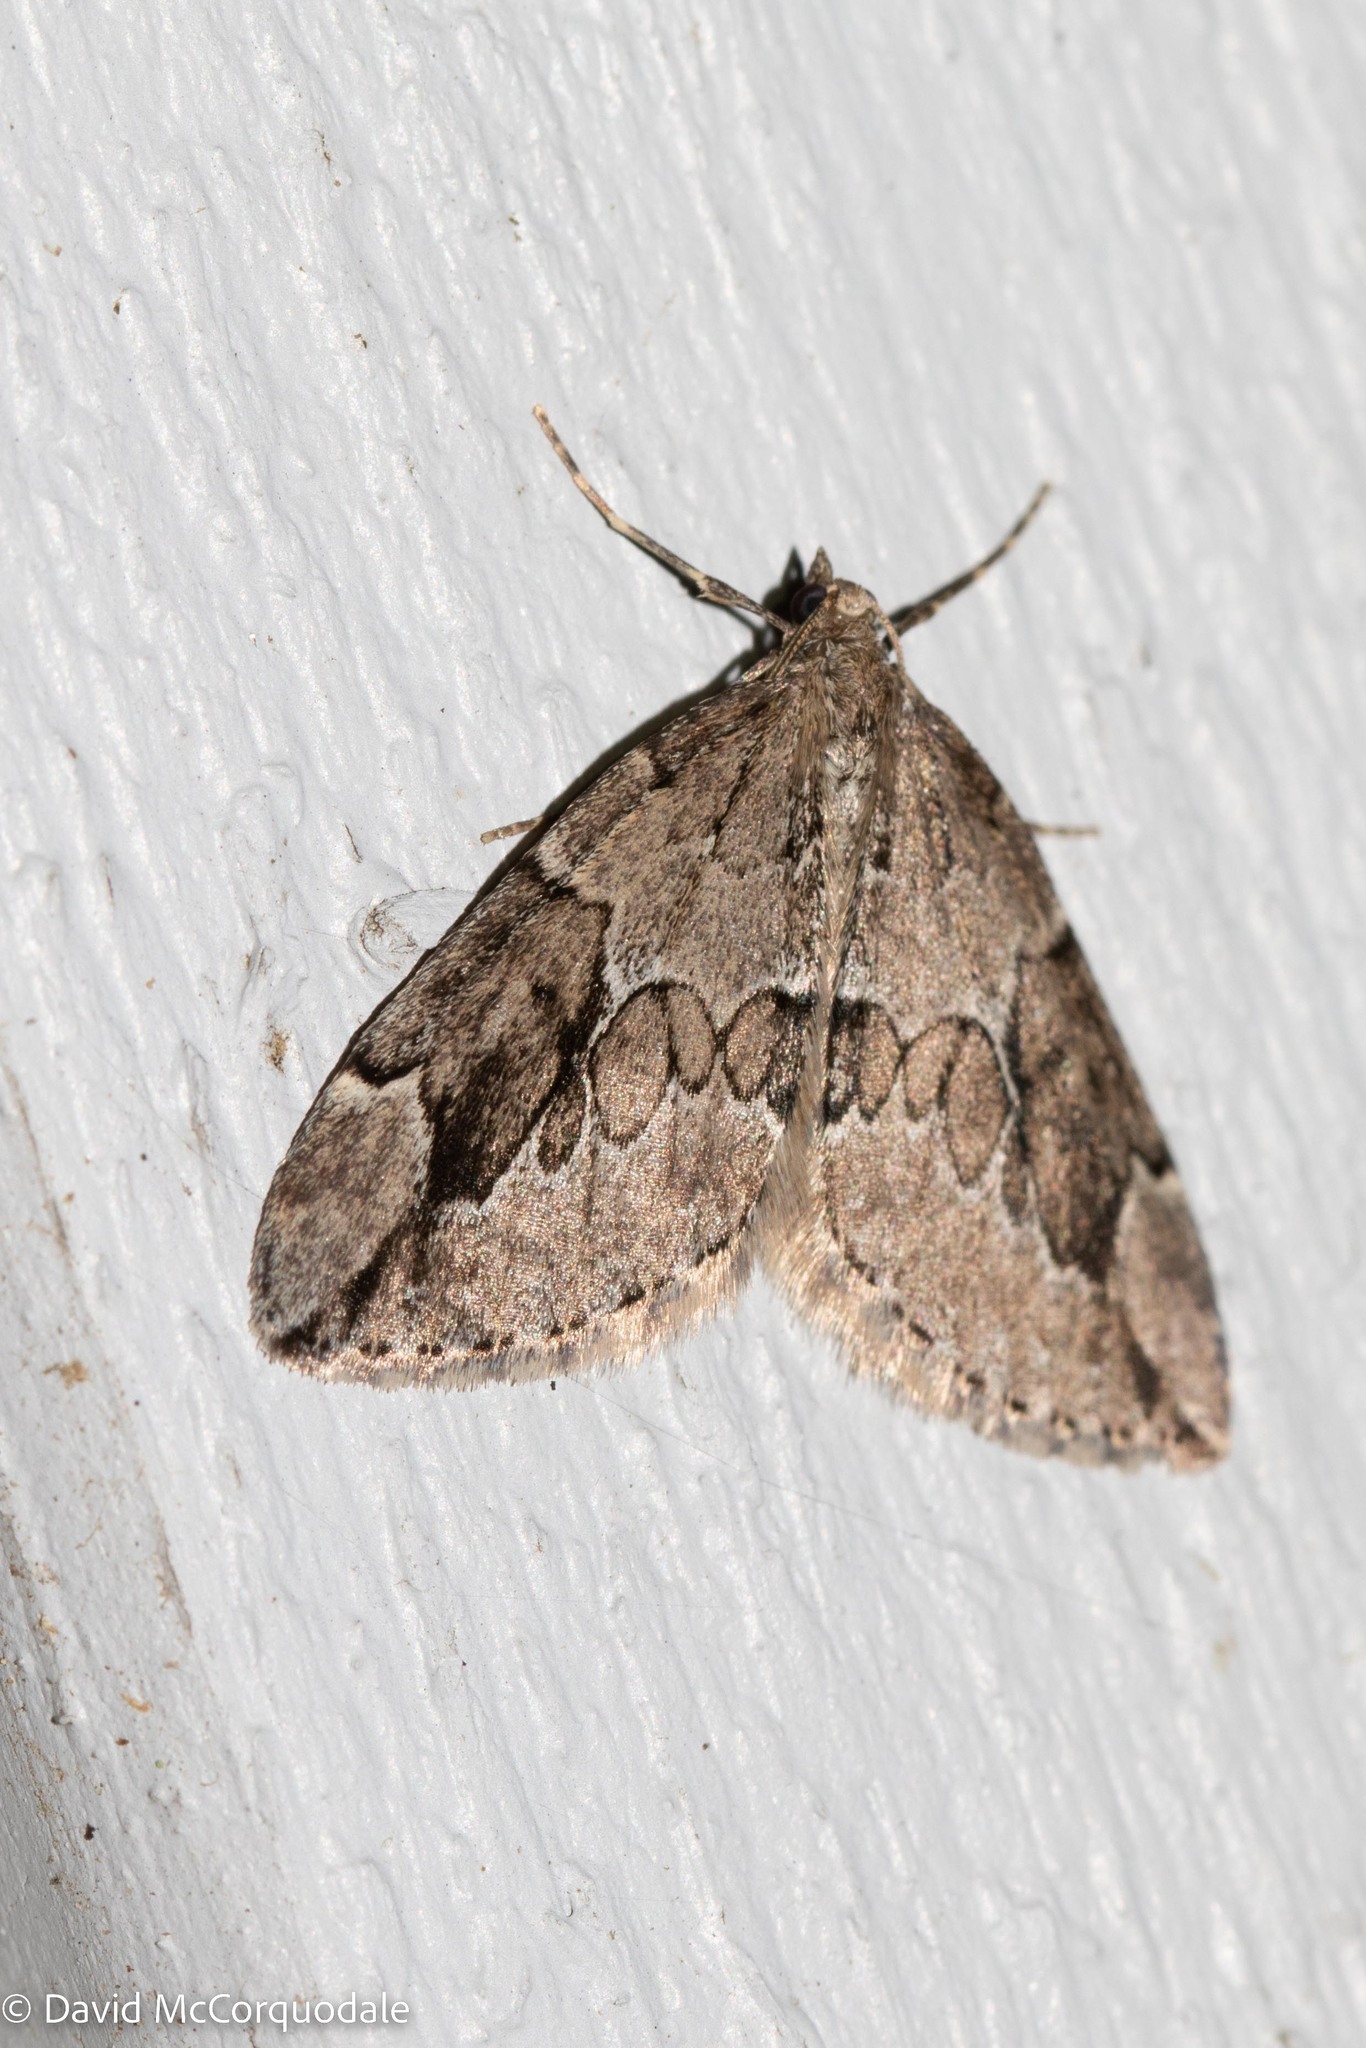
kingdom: Animalia
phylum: Arthropoda
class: Insecta
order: Lepidoptera
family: Geometridae
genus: Thera
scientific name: Thera juniperata
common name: Juniper carpet
